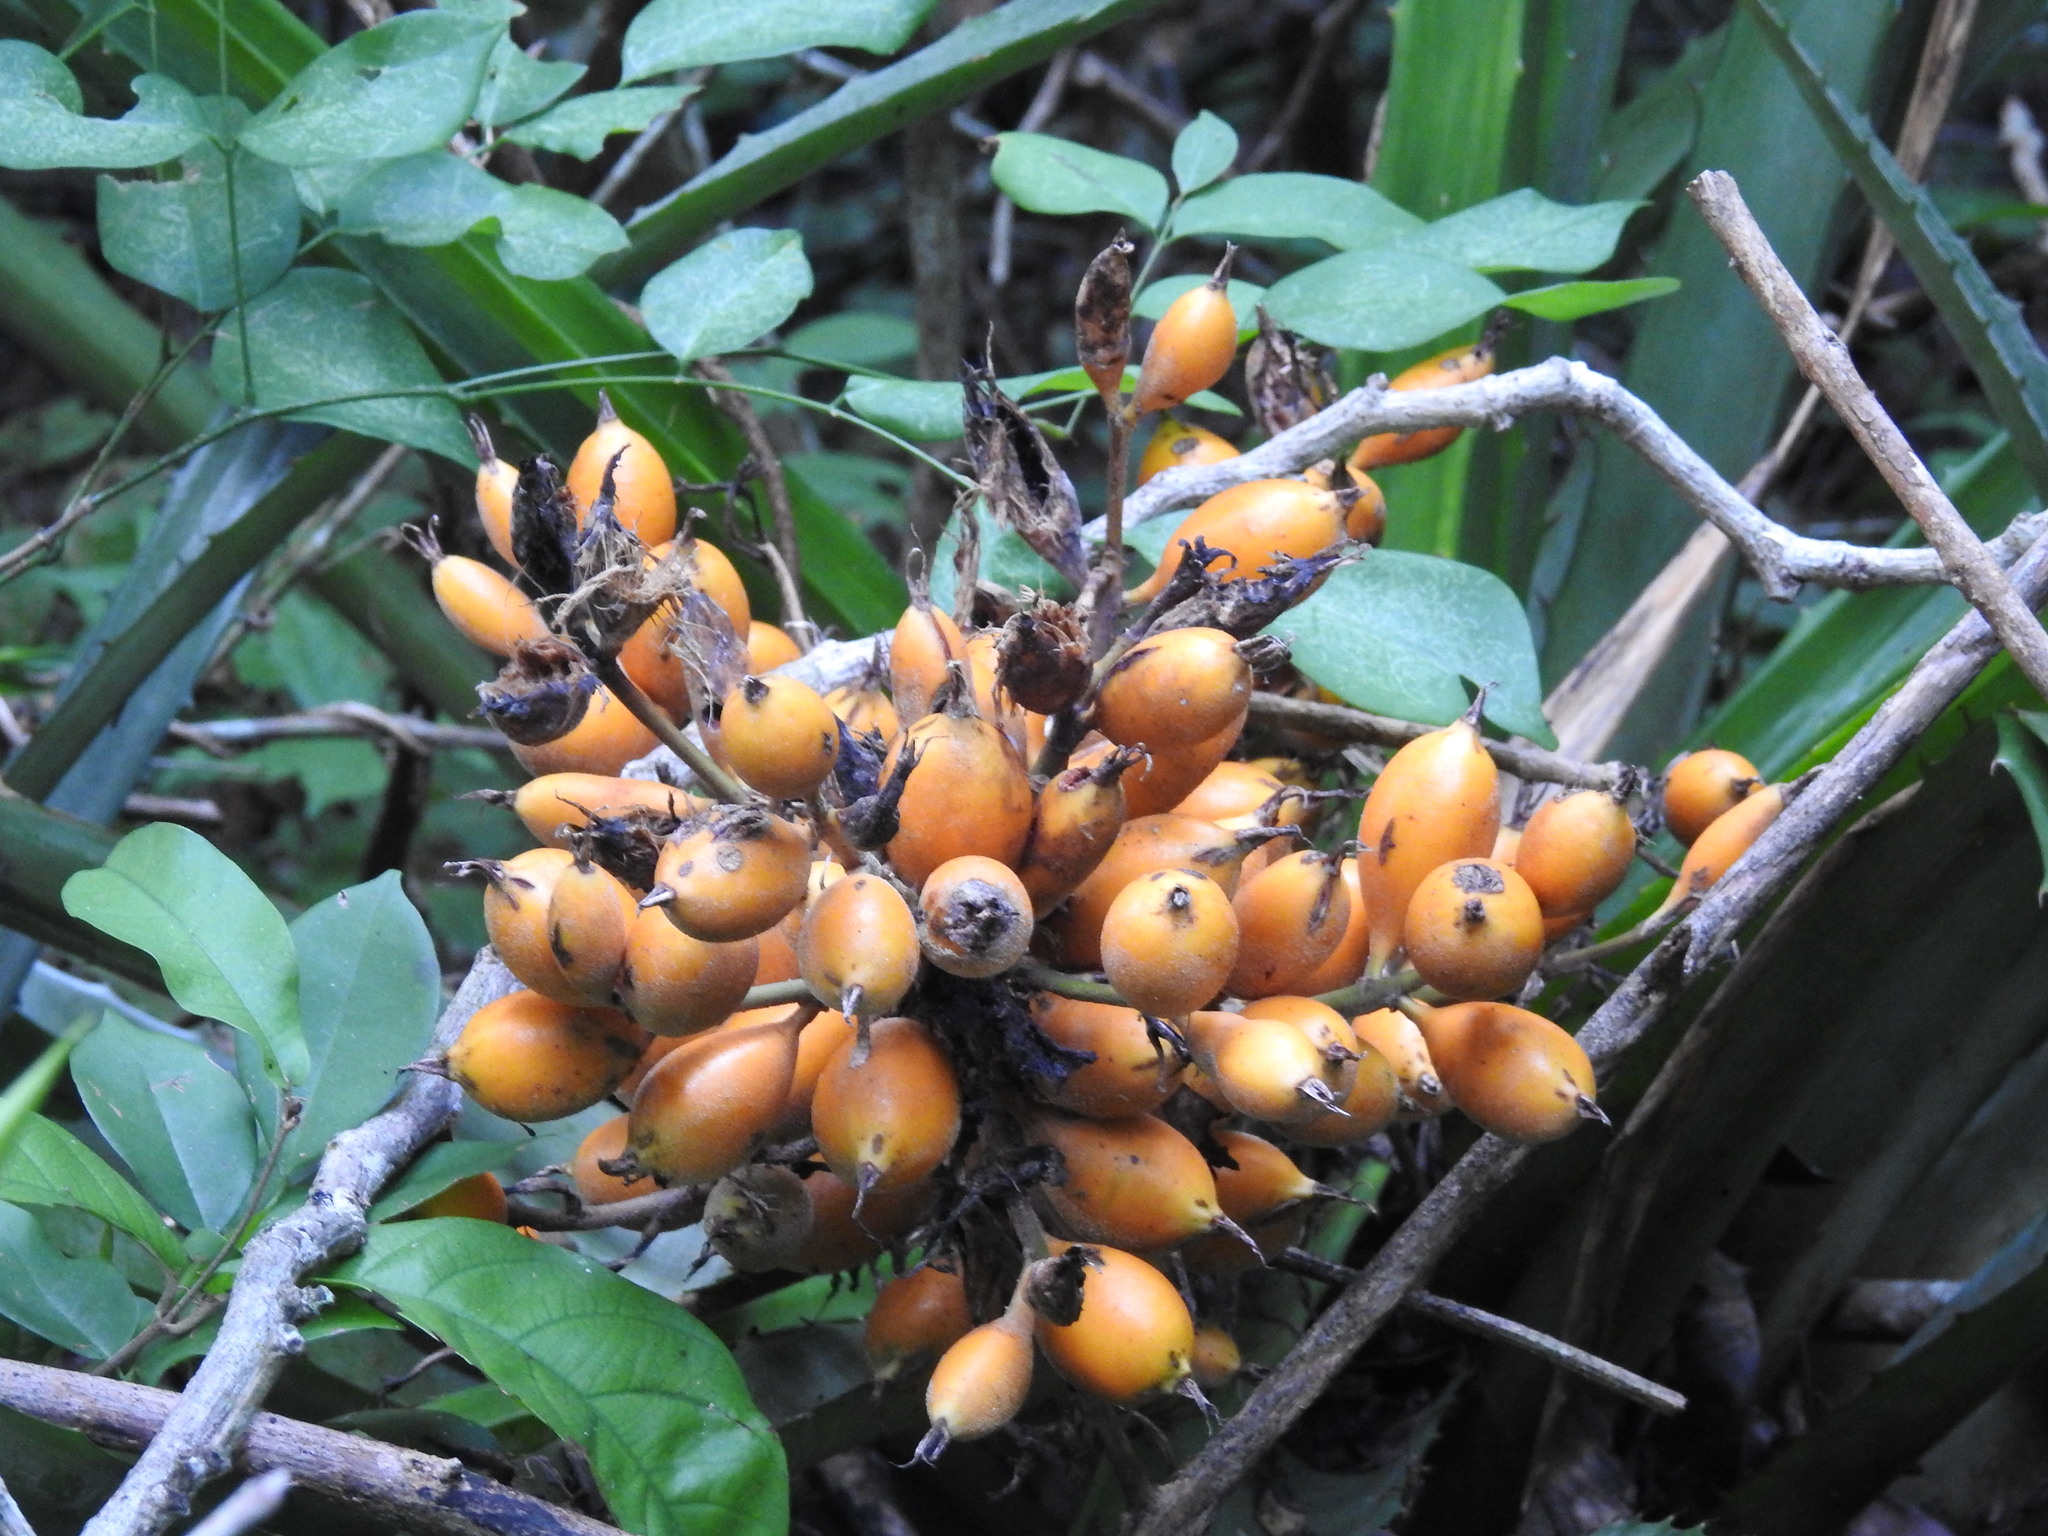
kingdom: Plantae
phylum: Tracheophyta
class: Liliopsida
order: Poales
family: Bromeliaceae
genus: Bromelia
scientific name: Bromelia pinguin
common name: Pinguin
